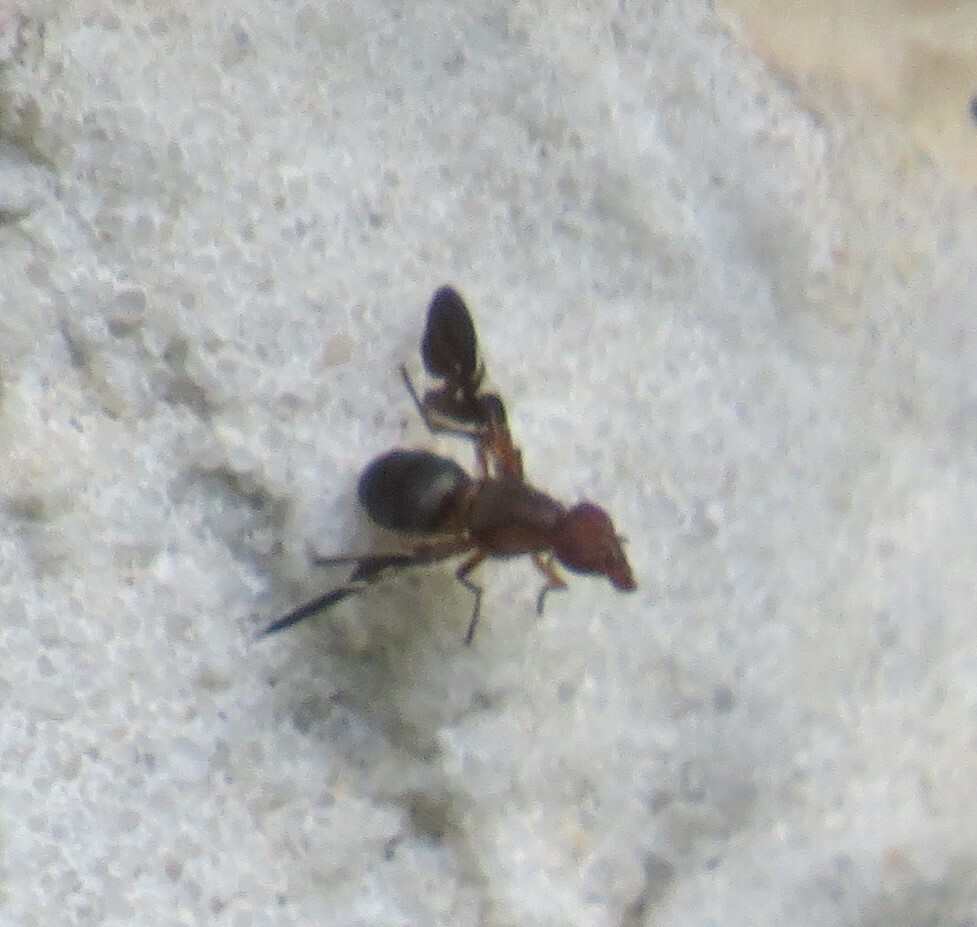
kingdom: Animalia
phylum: Arthropoda
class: Insecta
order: Diptera
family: Ulidiidae
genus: Delphinia
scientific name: Delphinia picta
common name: Common picture-winged fly
